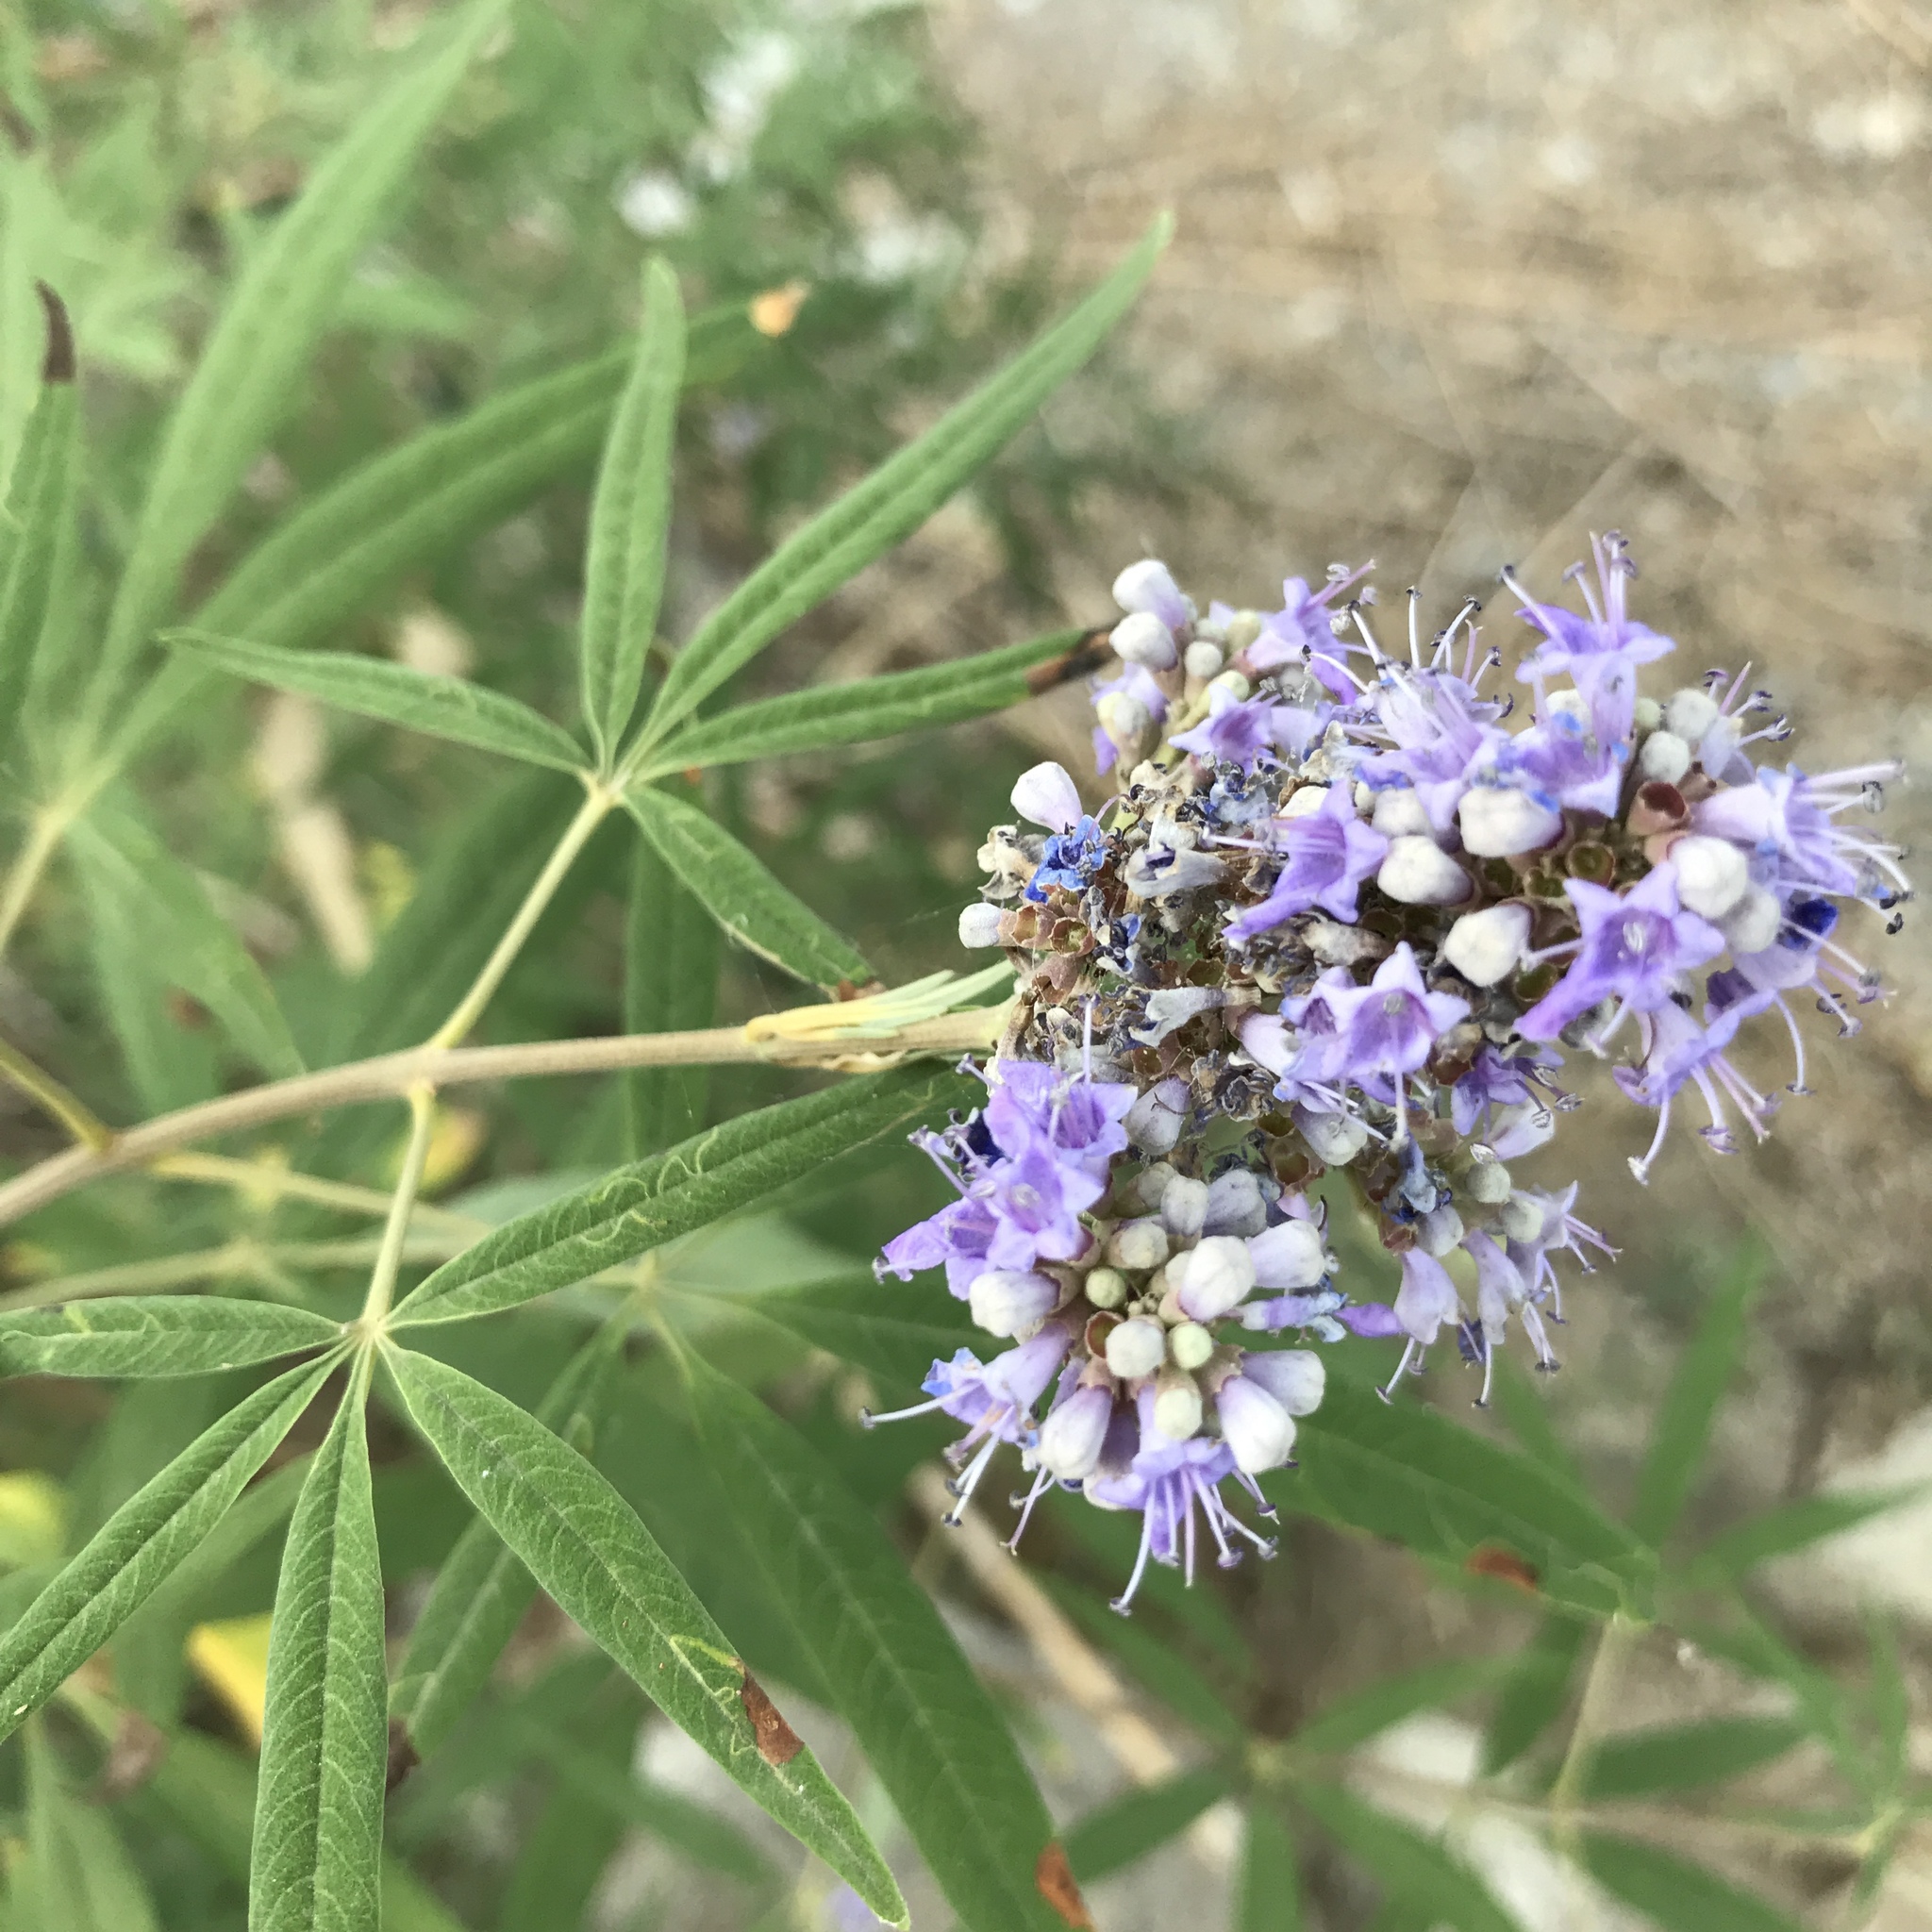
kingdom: Plantae
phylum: Tracheophyta
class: Magnoliopsida
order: Lamiales
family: Lamiaceae
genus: Vitex
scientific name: Vitex agnus-castus
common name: Chasteberry
